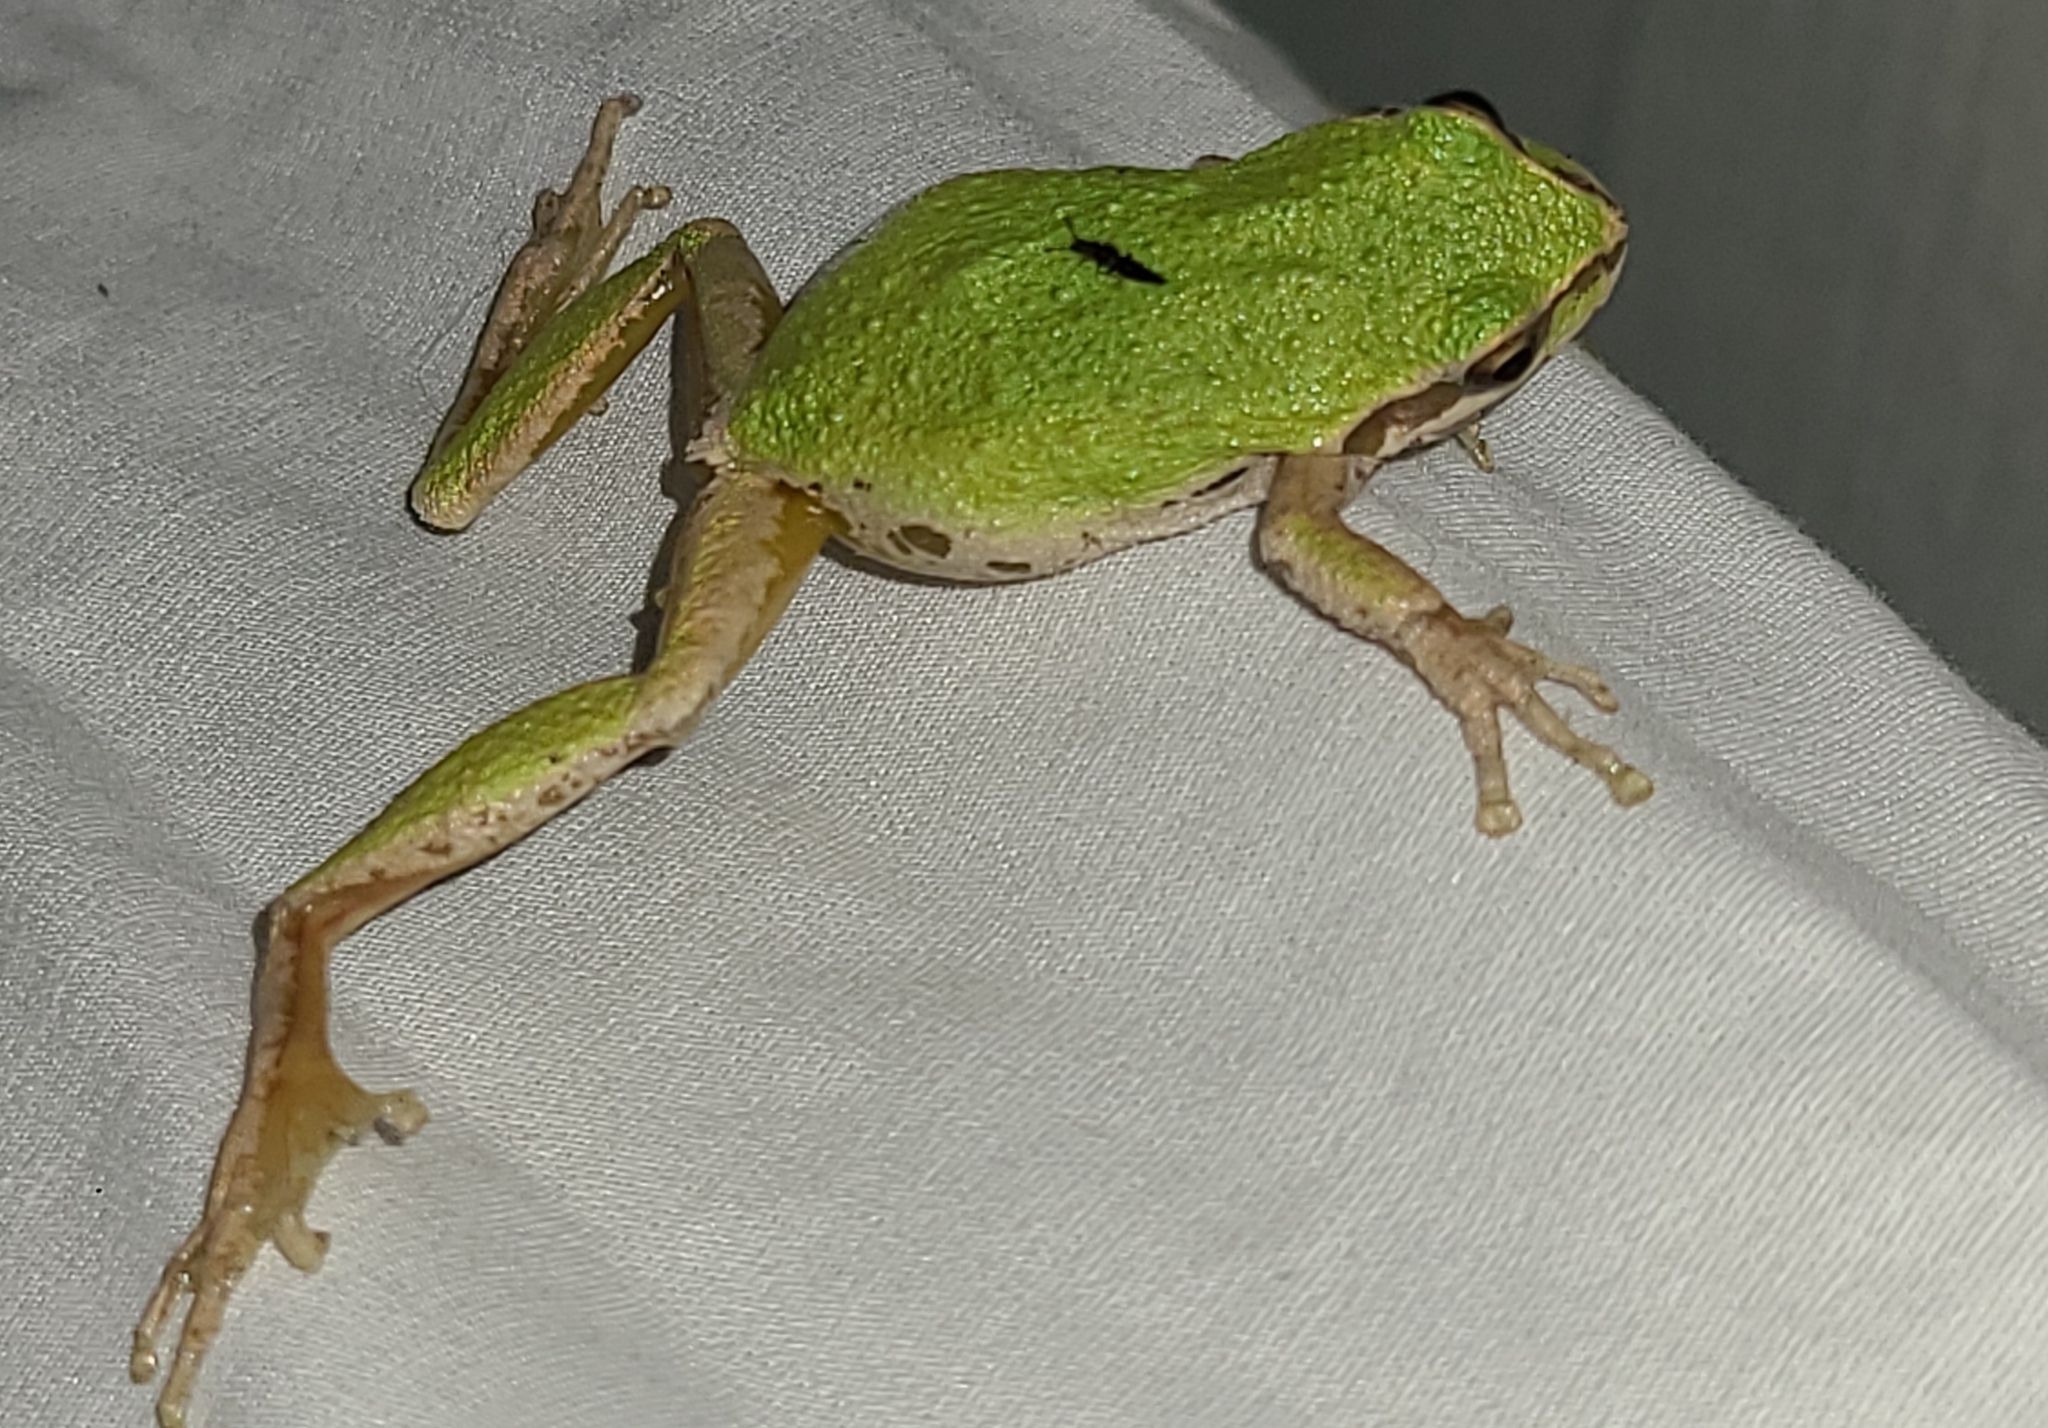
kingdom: Animalia
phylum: Chordata
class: Amphibia
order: Anura
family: Hylidae
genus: Pseudacris
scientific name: Pseudacris regilla
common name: Pacific chorus frog
